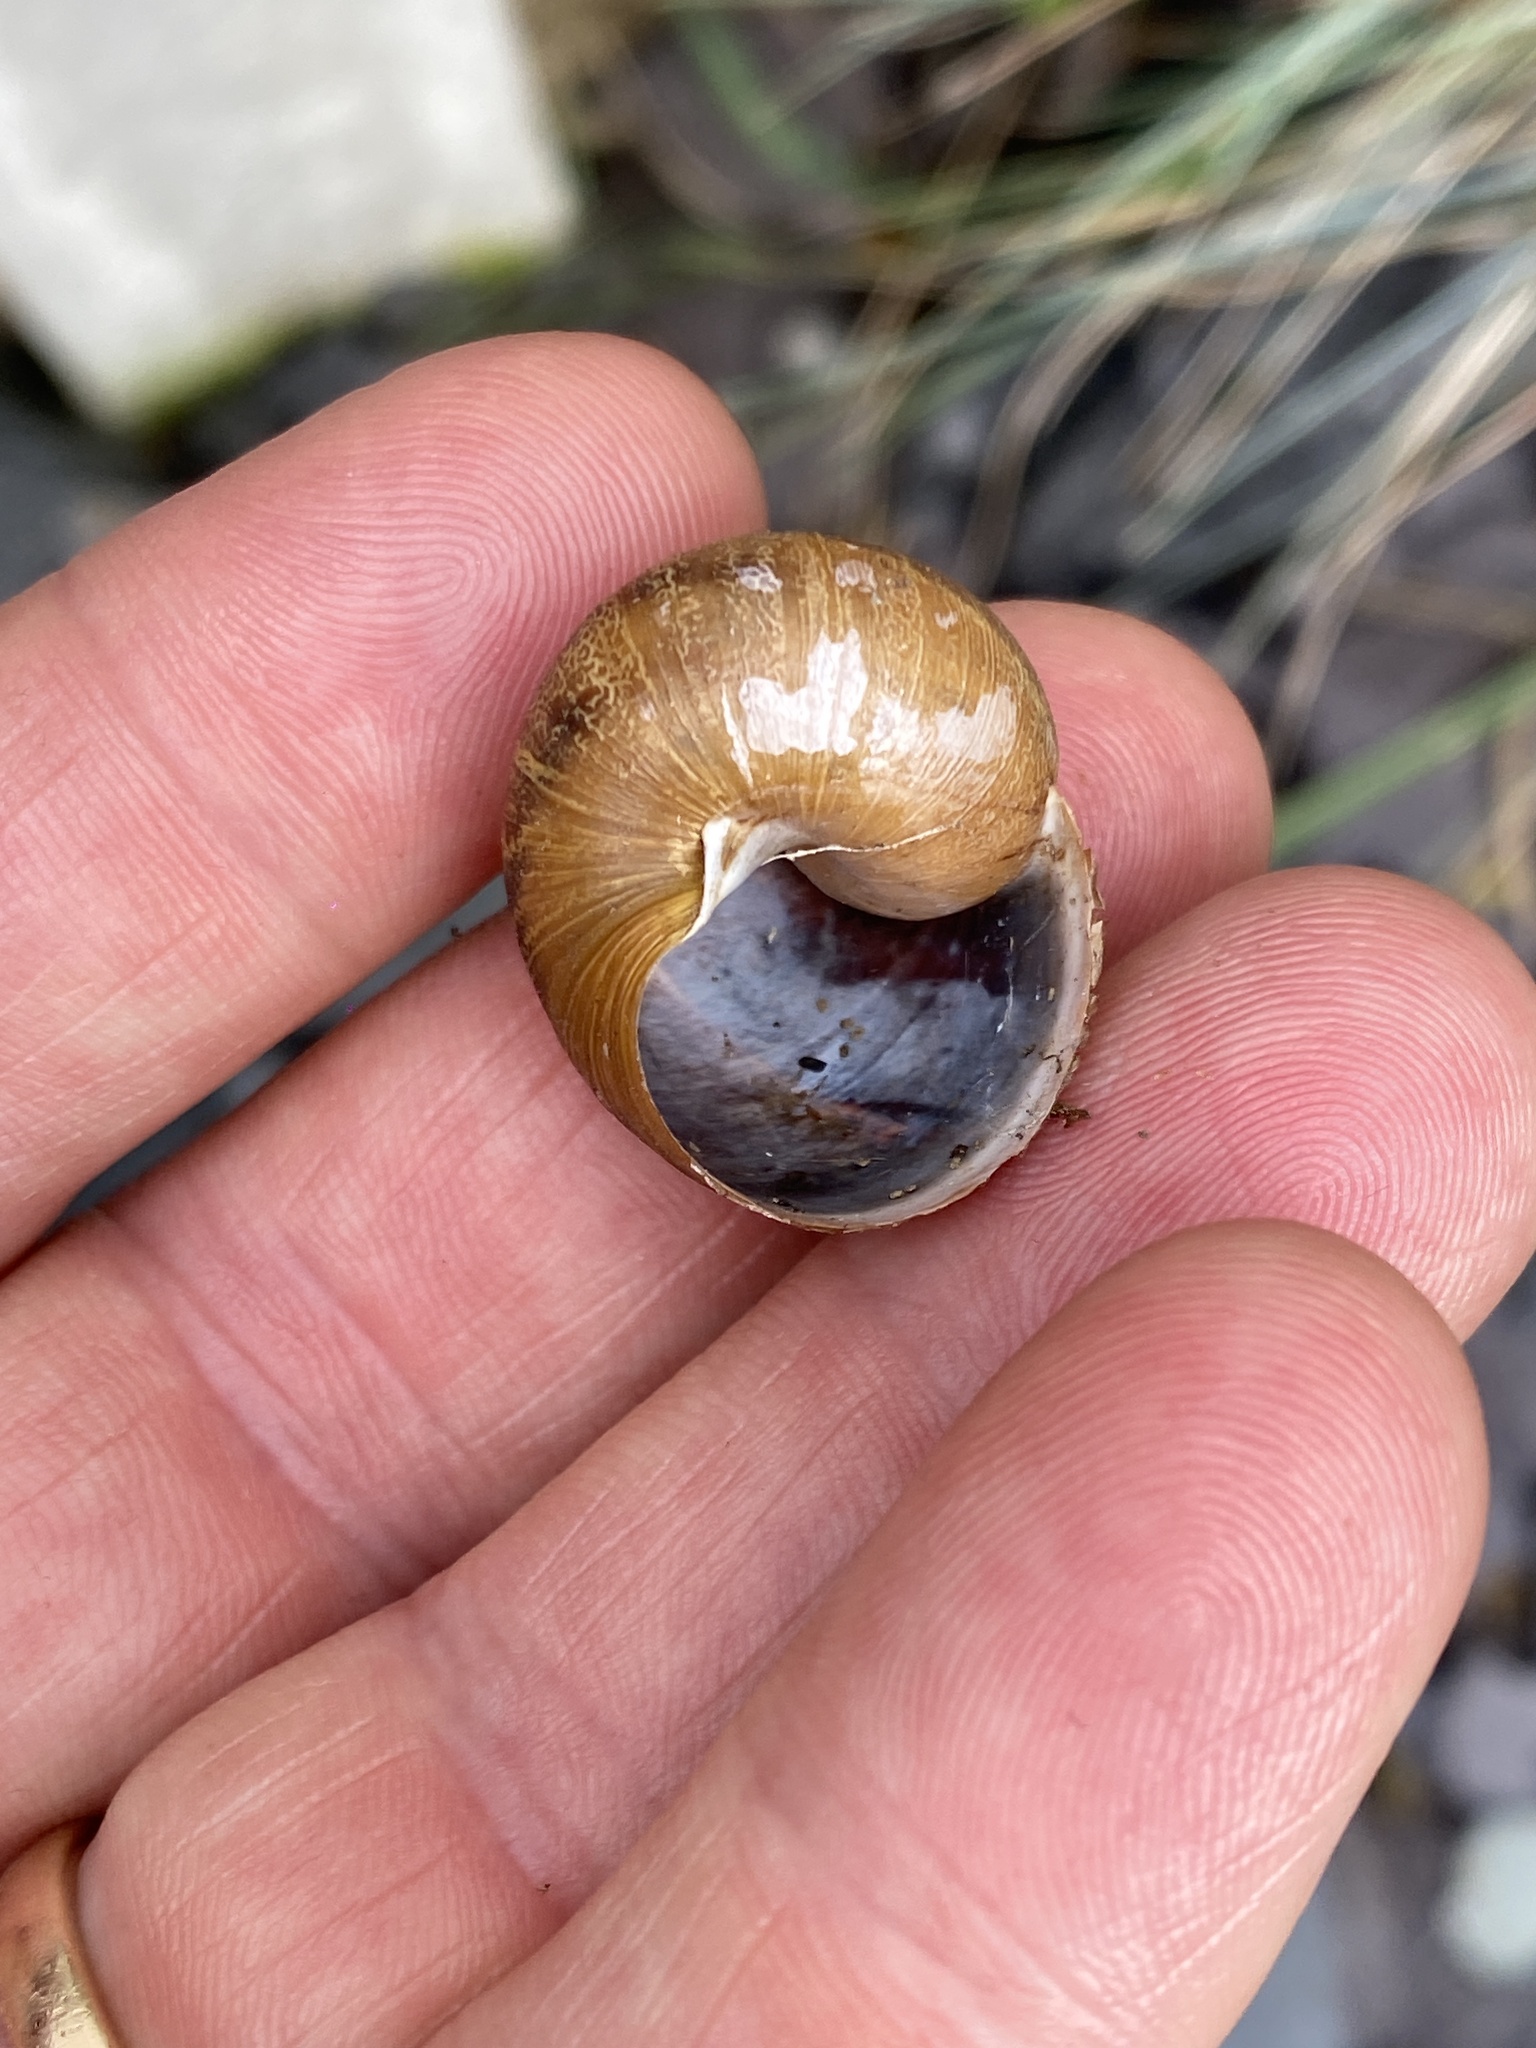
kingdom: Animalia
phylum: Mollusca
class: Gastropoda
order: Stylommatophora
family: Helicidae
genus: Cornu
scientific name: Cornu aspersum
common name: Brown garden snail
